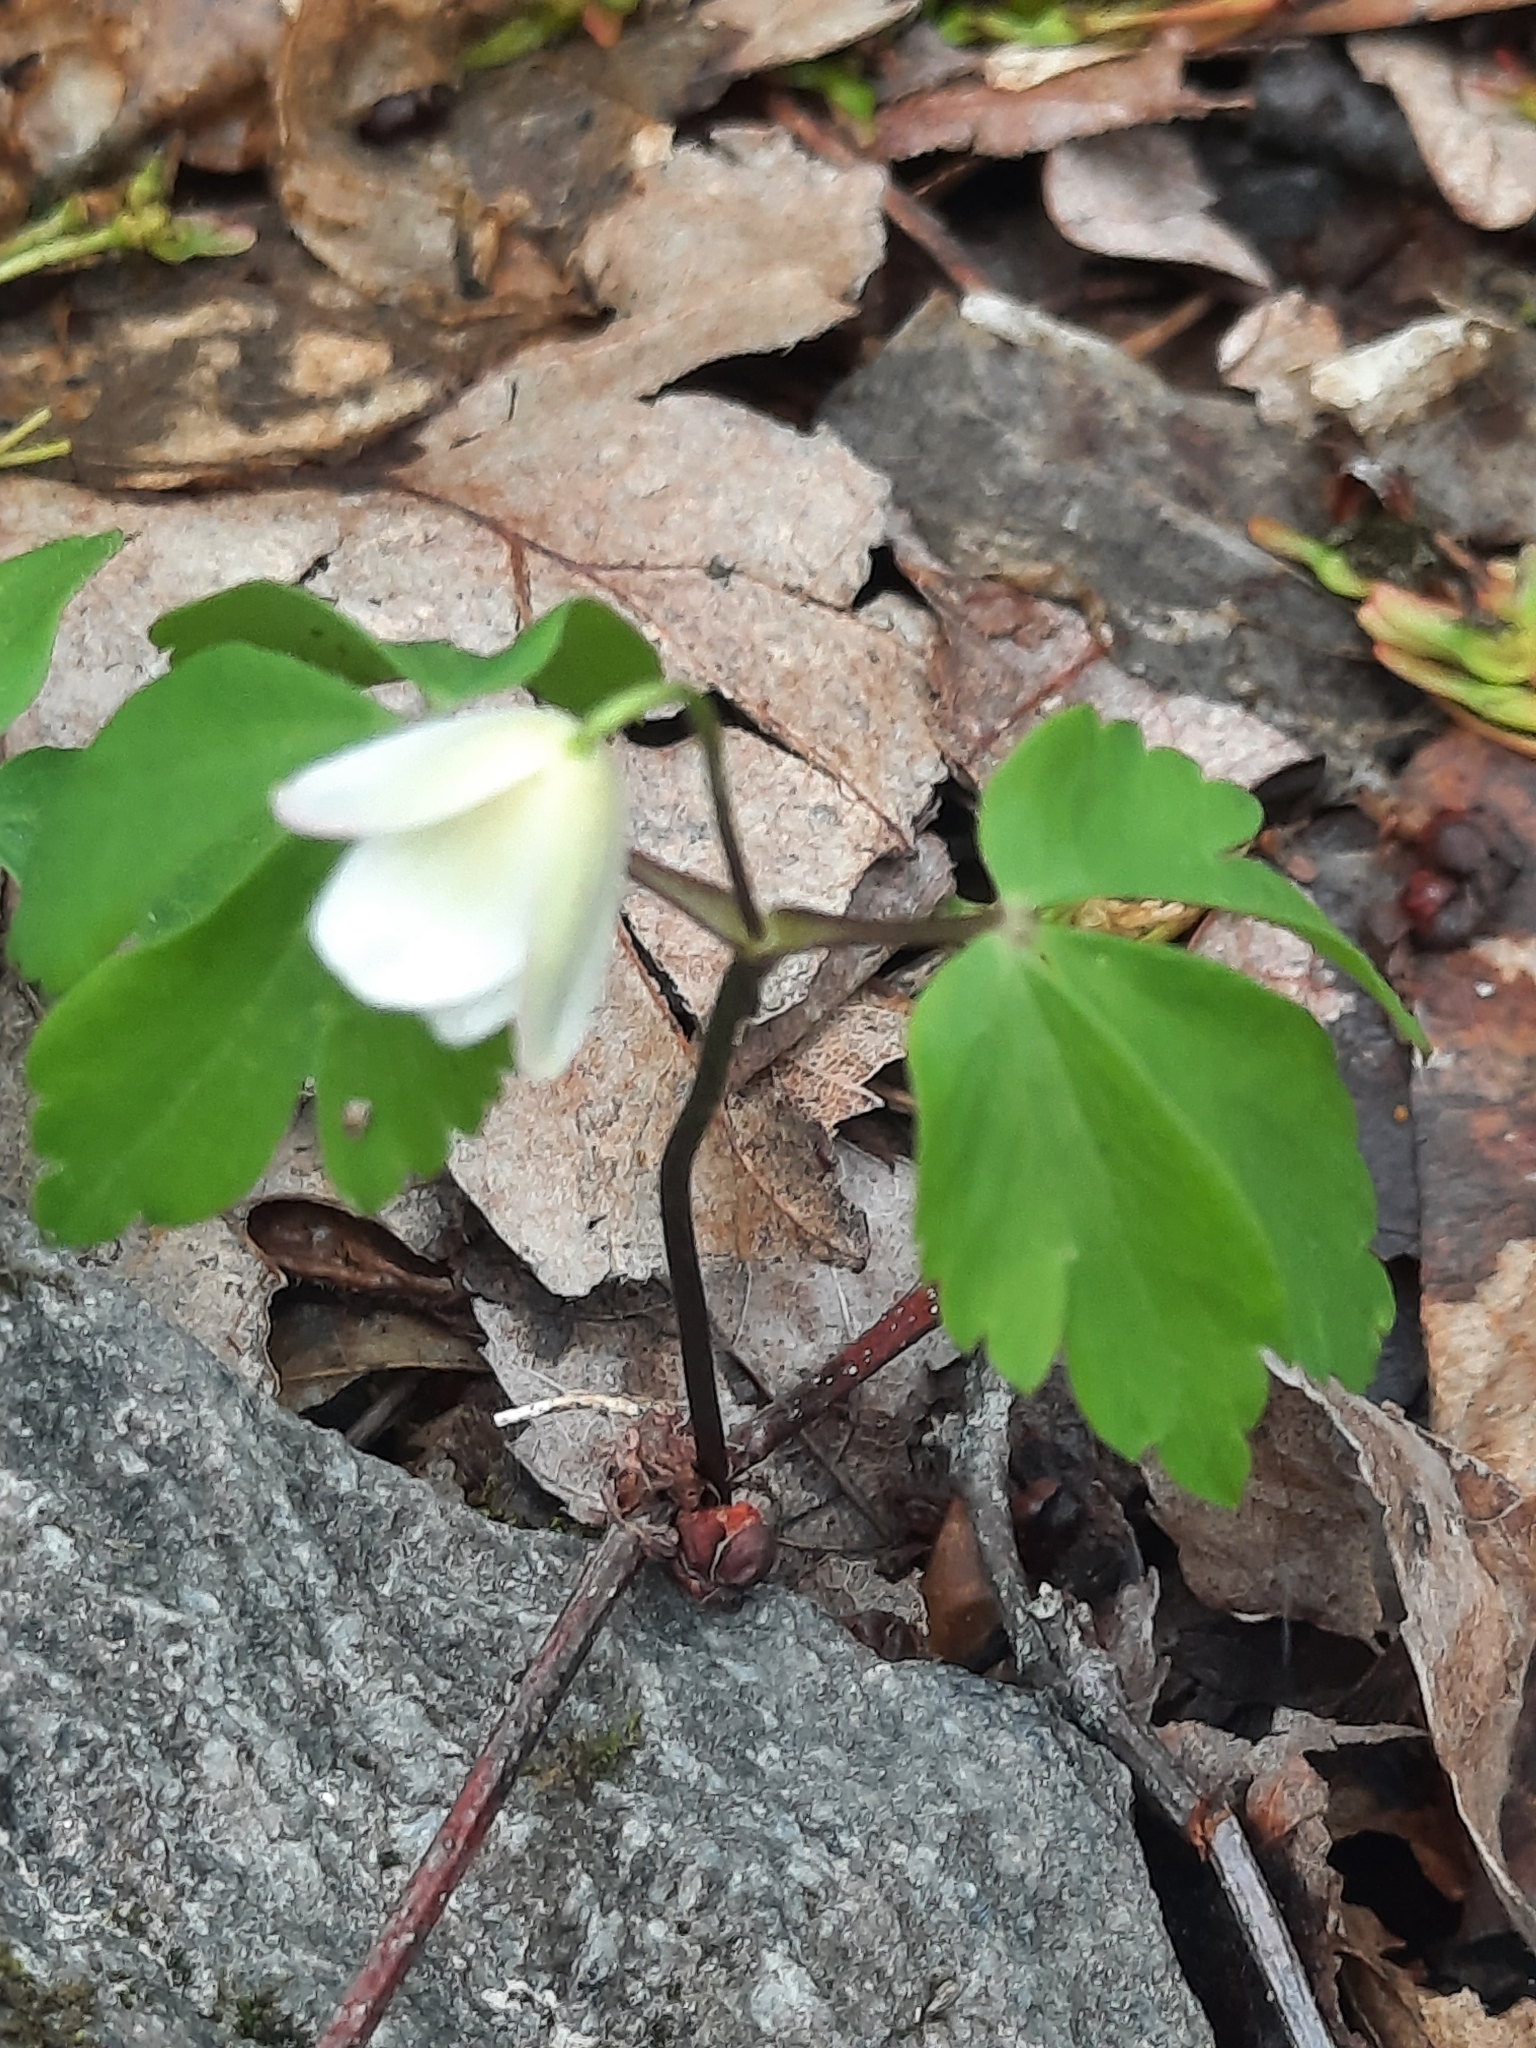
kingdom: Plantae
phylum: Tracheophyta
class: Magnoliopsida
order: Ranunculales
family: Ranunculaceae
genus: Anemone
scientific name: Anemone quinquefolia
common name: Wood anemone
